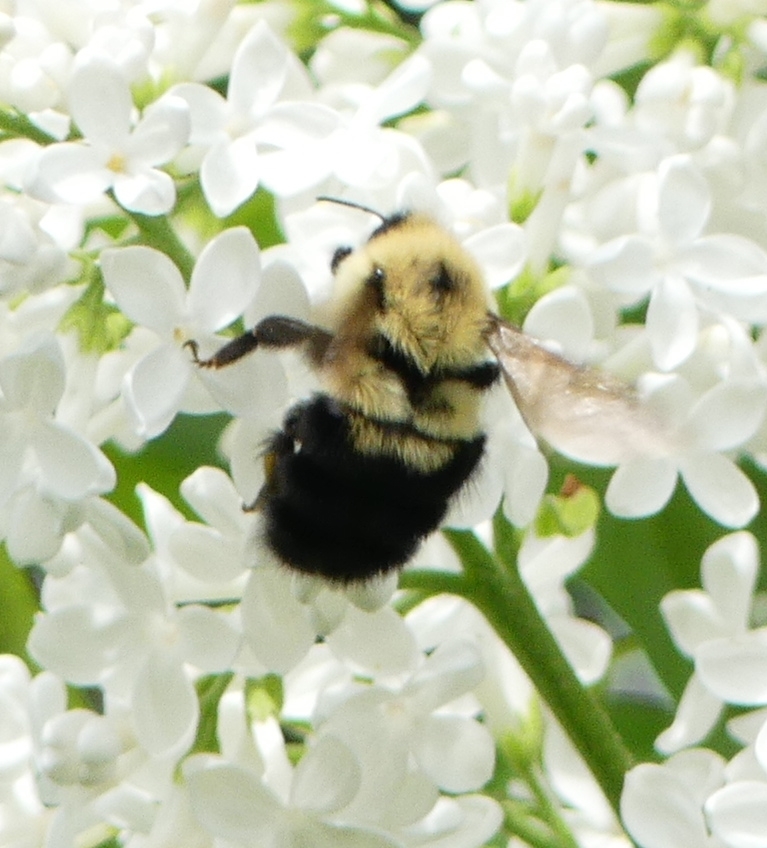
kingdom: Animalia
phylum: Arthropoda
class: Insecta
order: Hymenoptera
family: Apidae
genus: Bombus
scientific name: Bombus bimaculatus
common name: Two-spotted bumble bee
